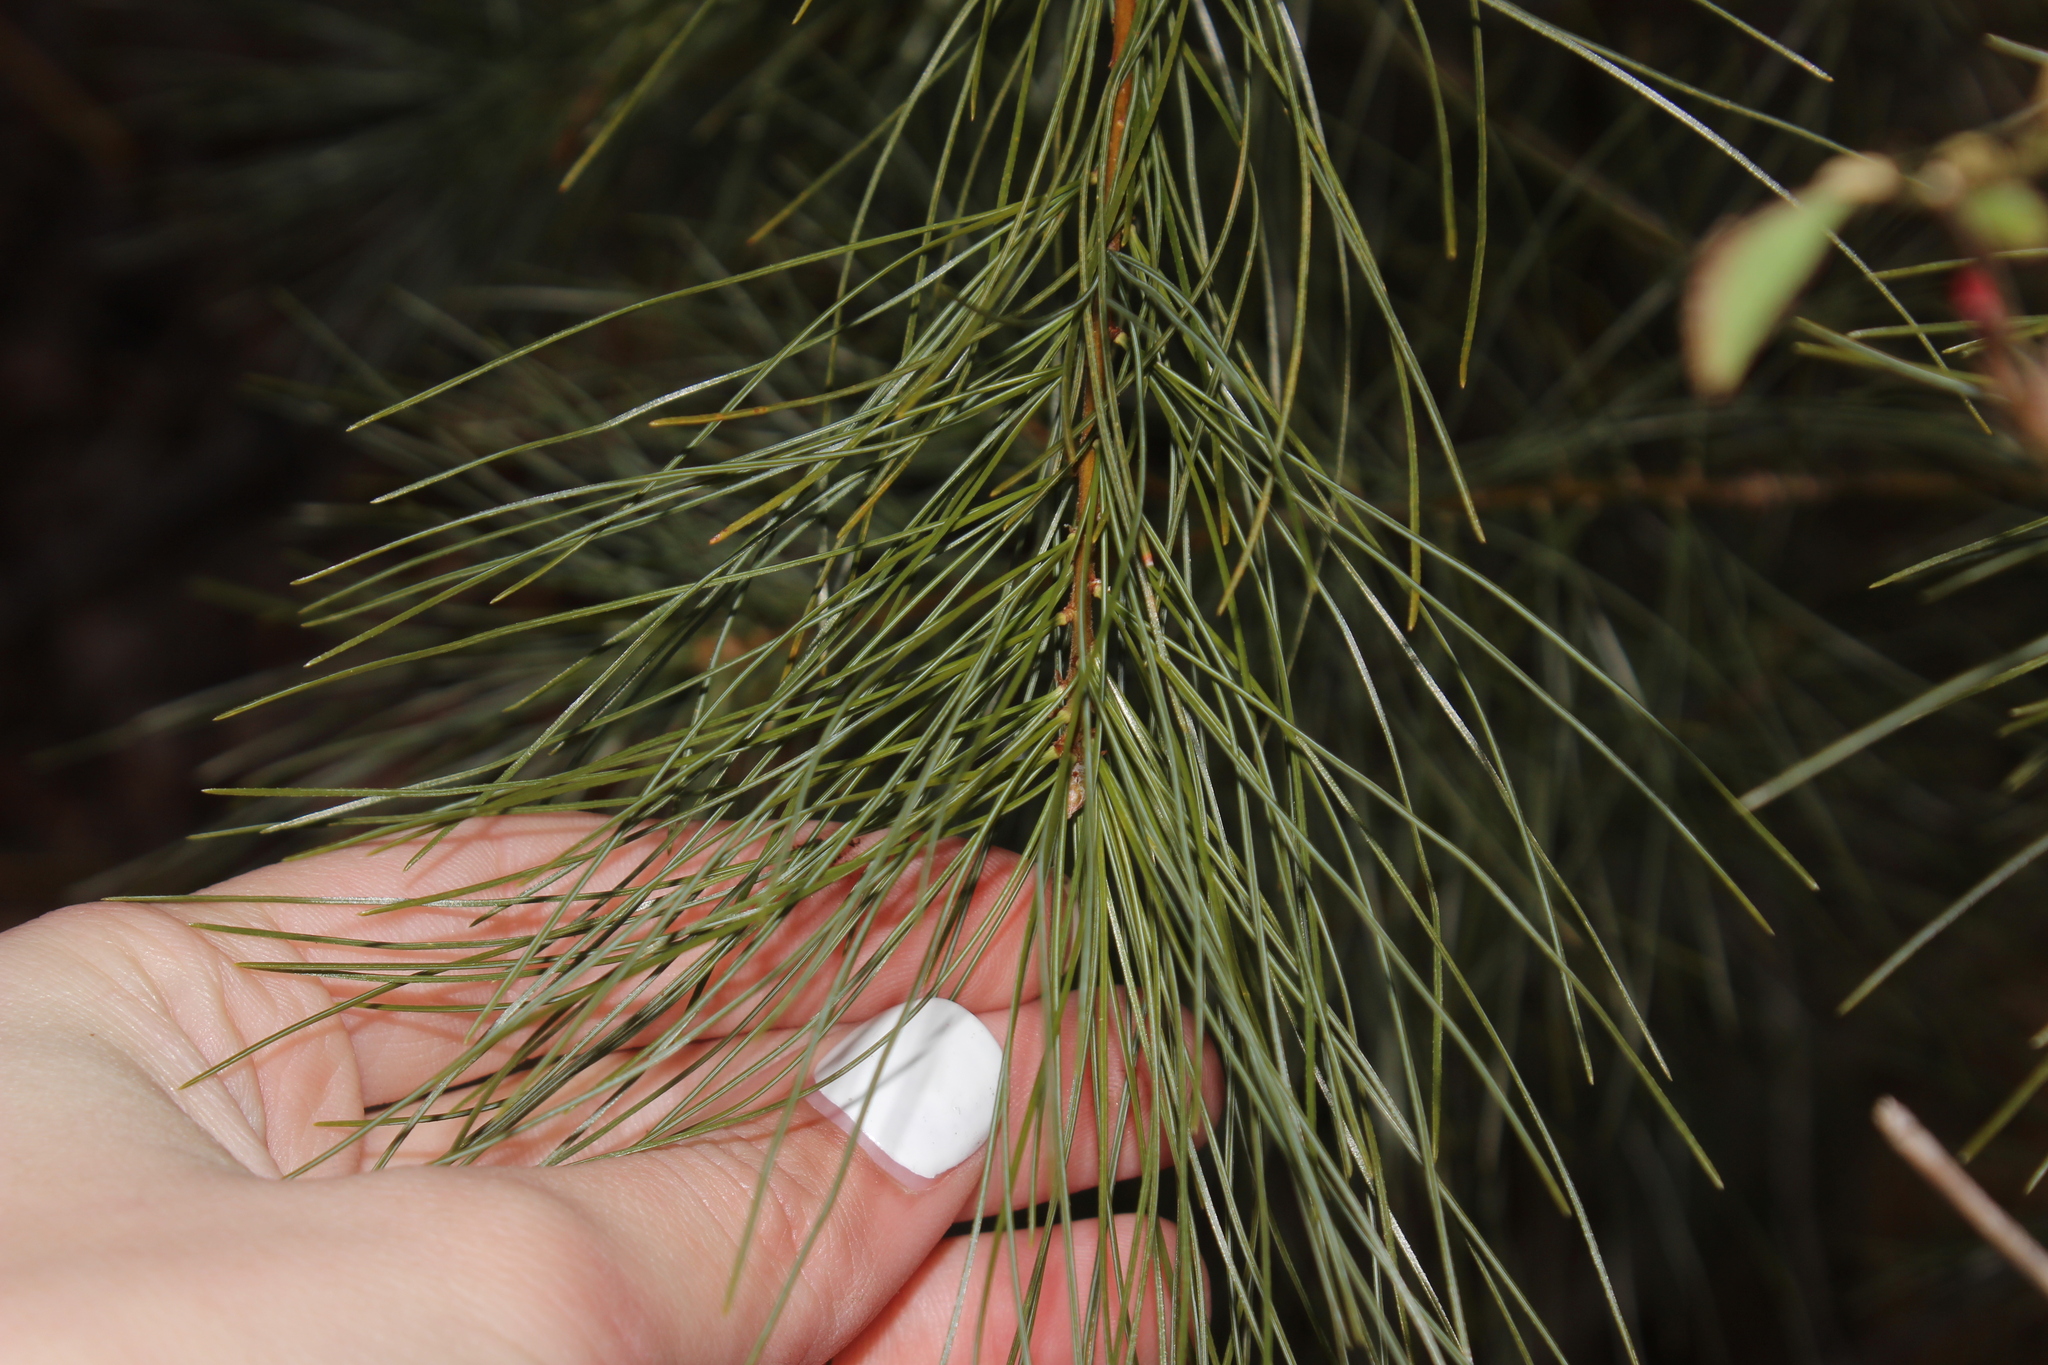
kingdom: Plantae
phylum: Tracheophyta
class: Pinopsida
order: Pinales
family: Pinaceae
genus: Pinus
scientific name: Pinus strobus
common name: Weymouth pine
